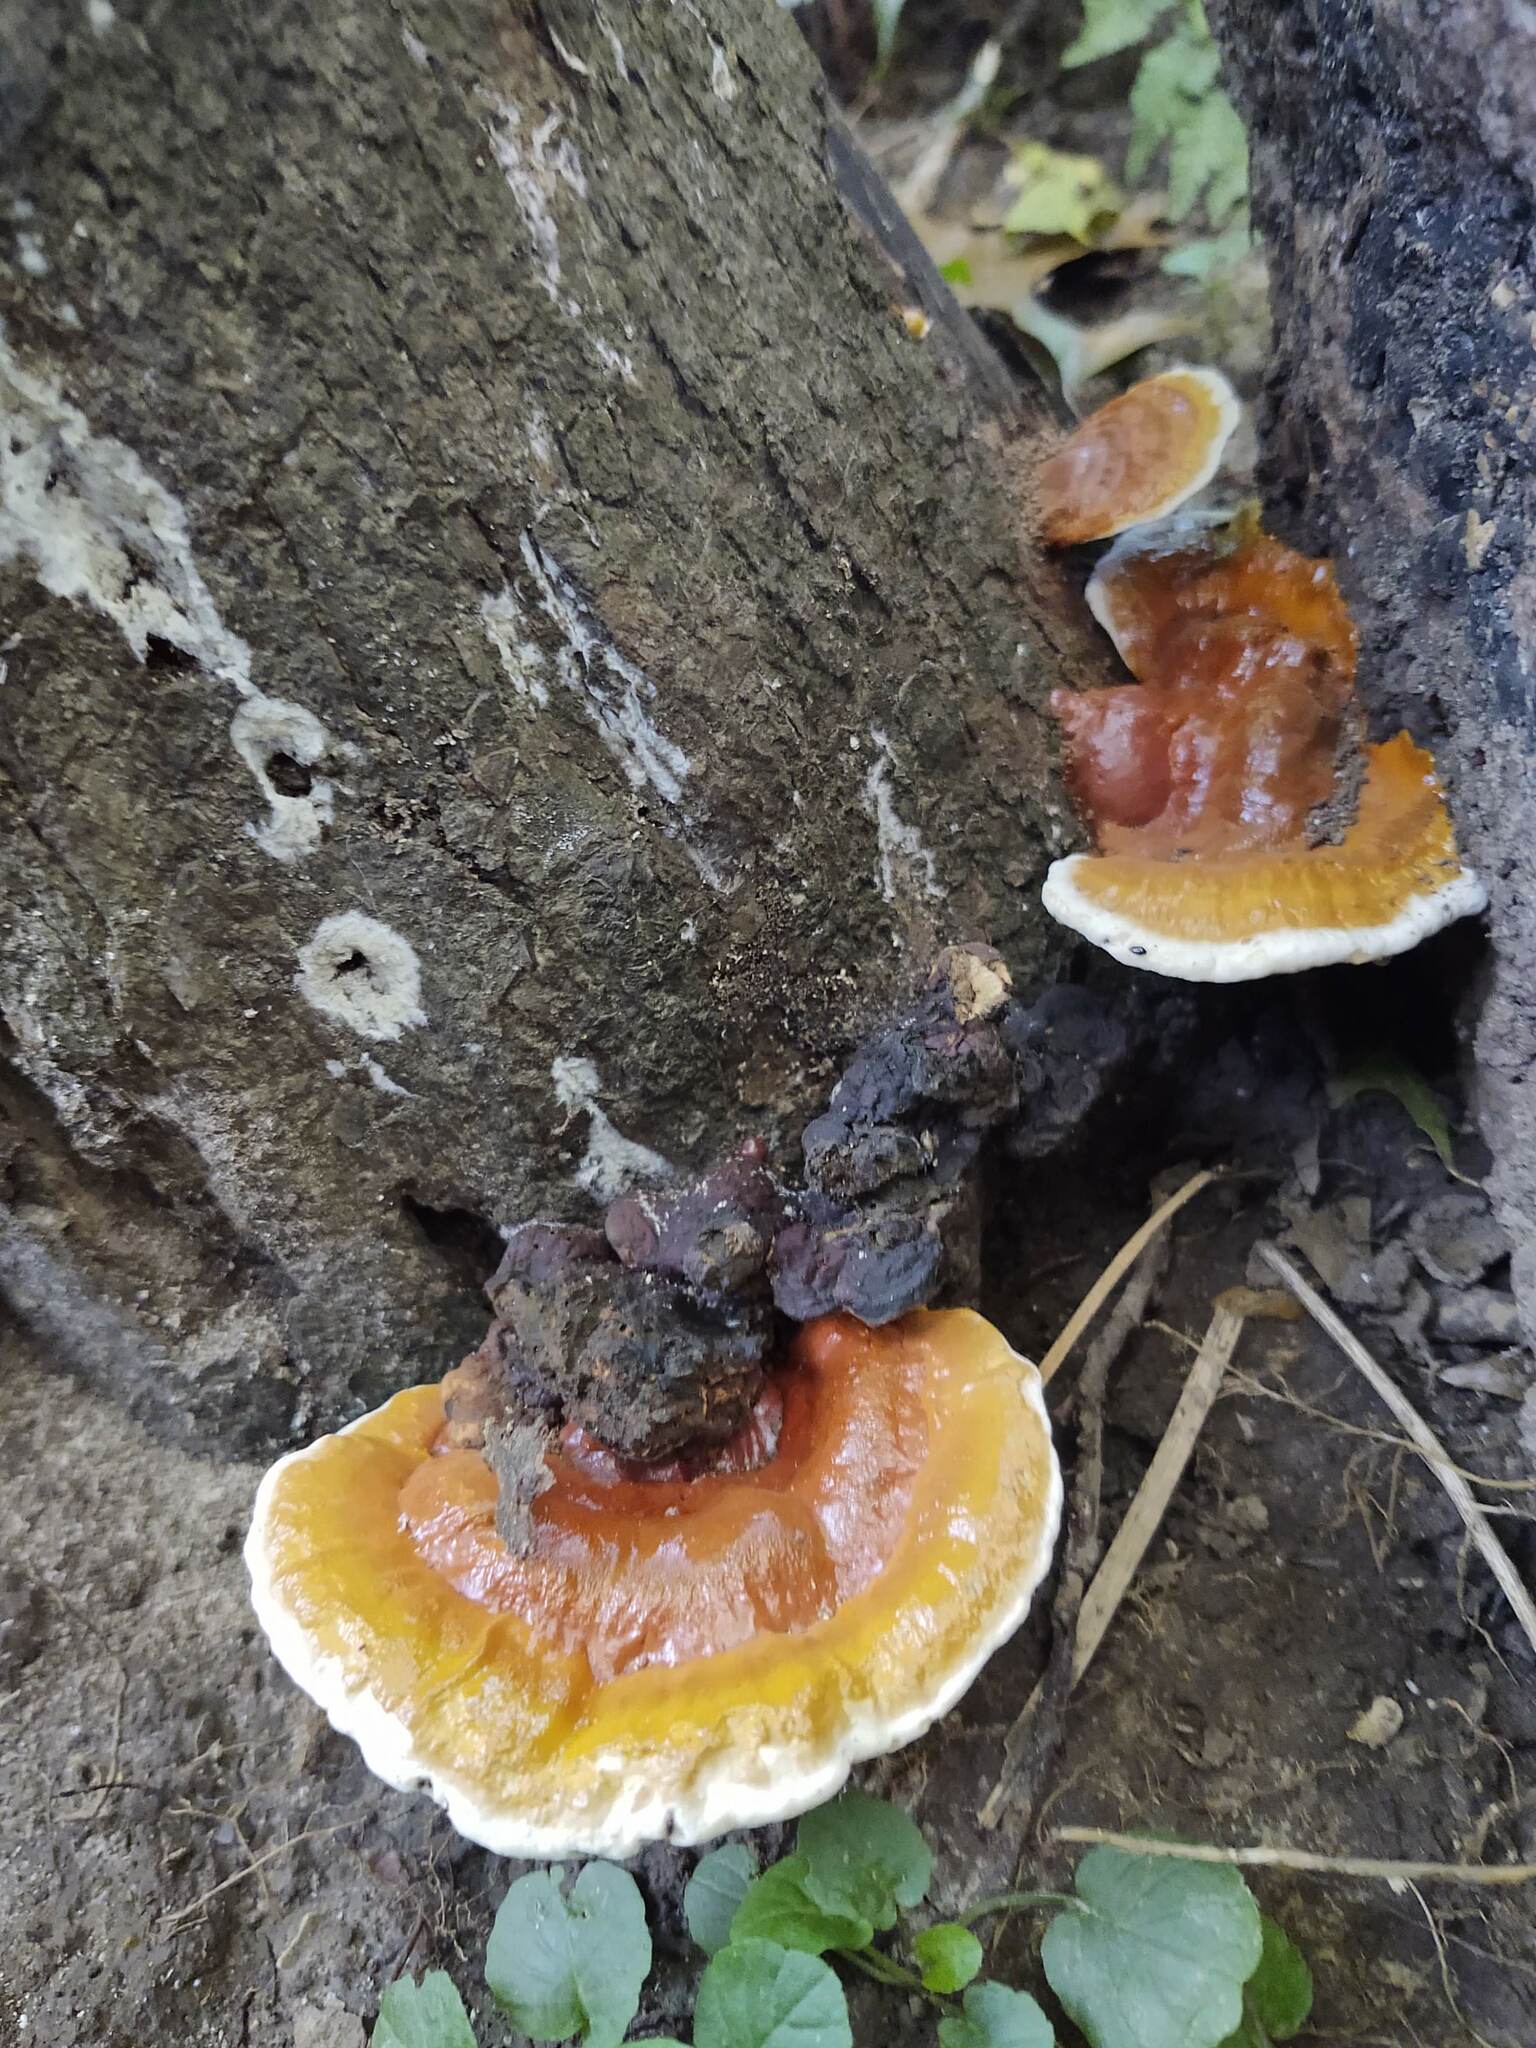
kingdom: Fungi
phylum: Basidiomycota
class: Agaricomycetes
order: Polyporales
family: Polyporaceae
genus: Ganoderma
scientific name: Ganoderma resinaceum
